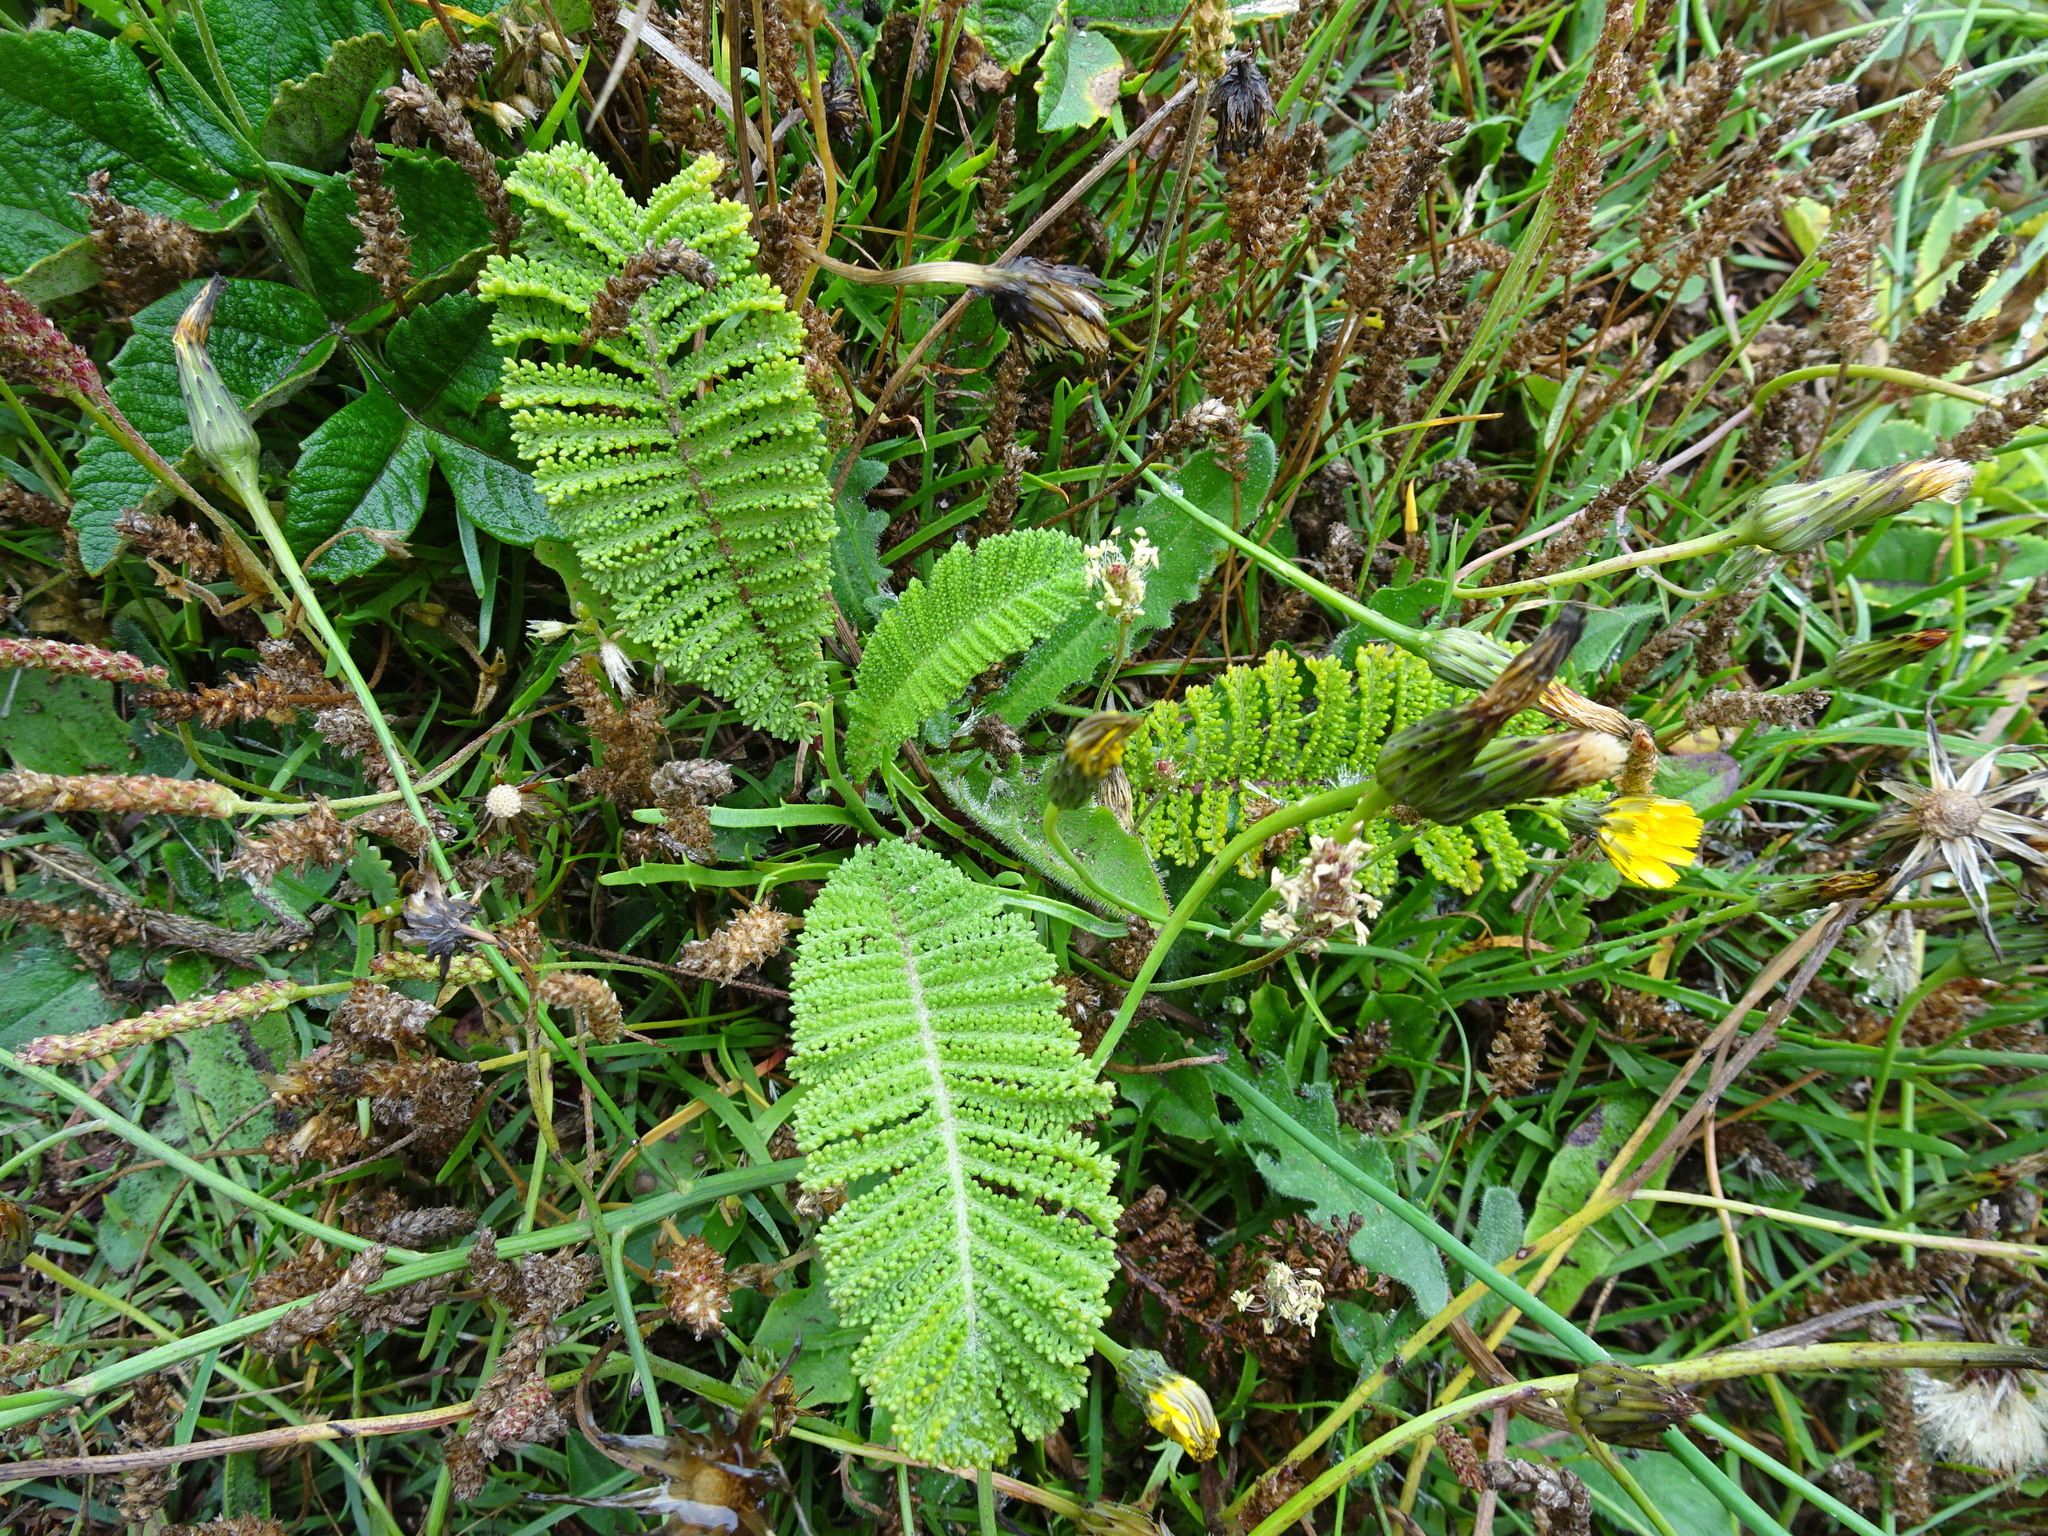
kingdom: Plantae
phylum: Tracheophyta
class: Magnoliopsida
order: Asterales
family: Asteraceae
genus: Tanacetum
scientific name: Tanacetum bipinnatum
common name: Dwarf tansy
